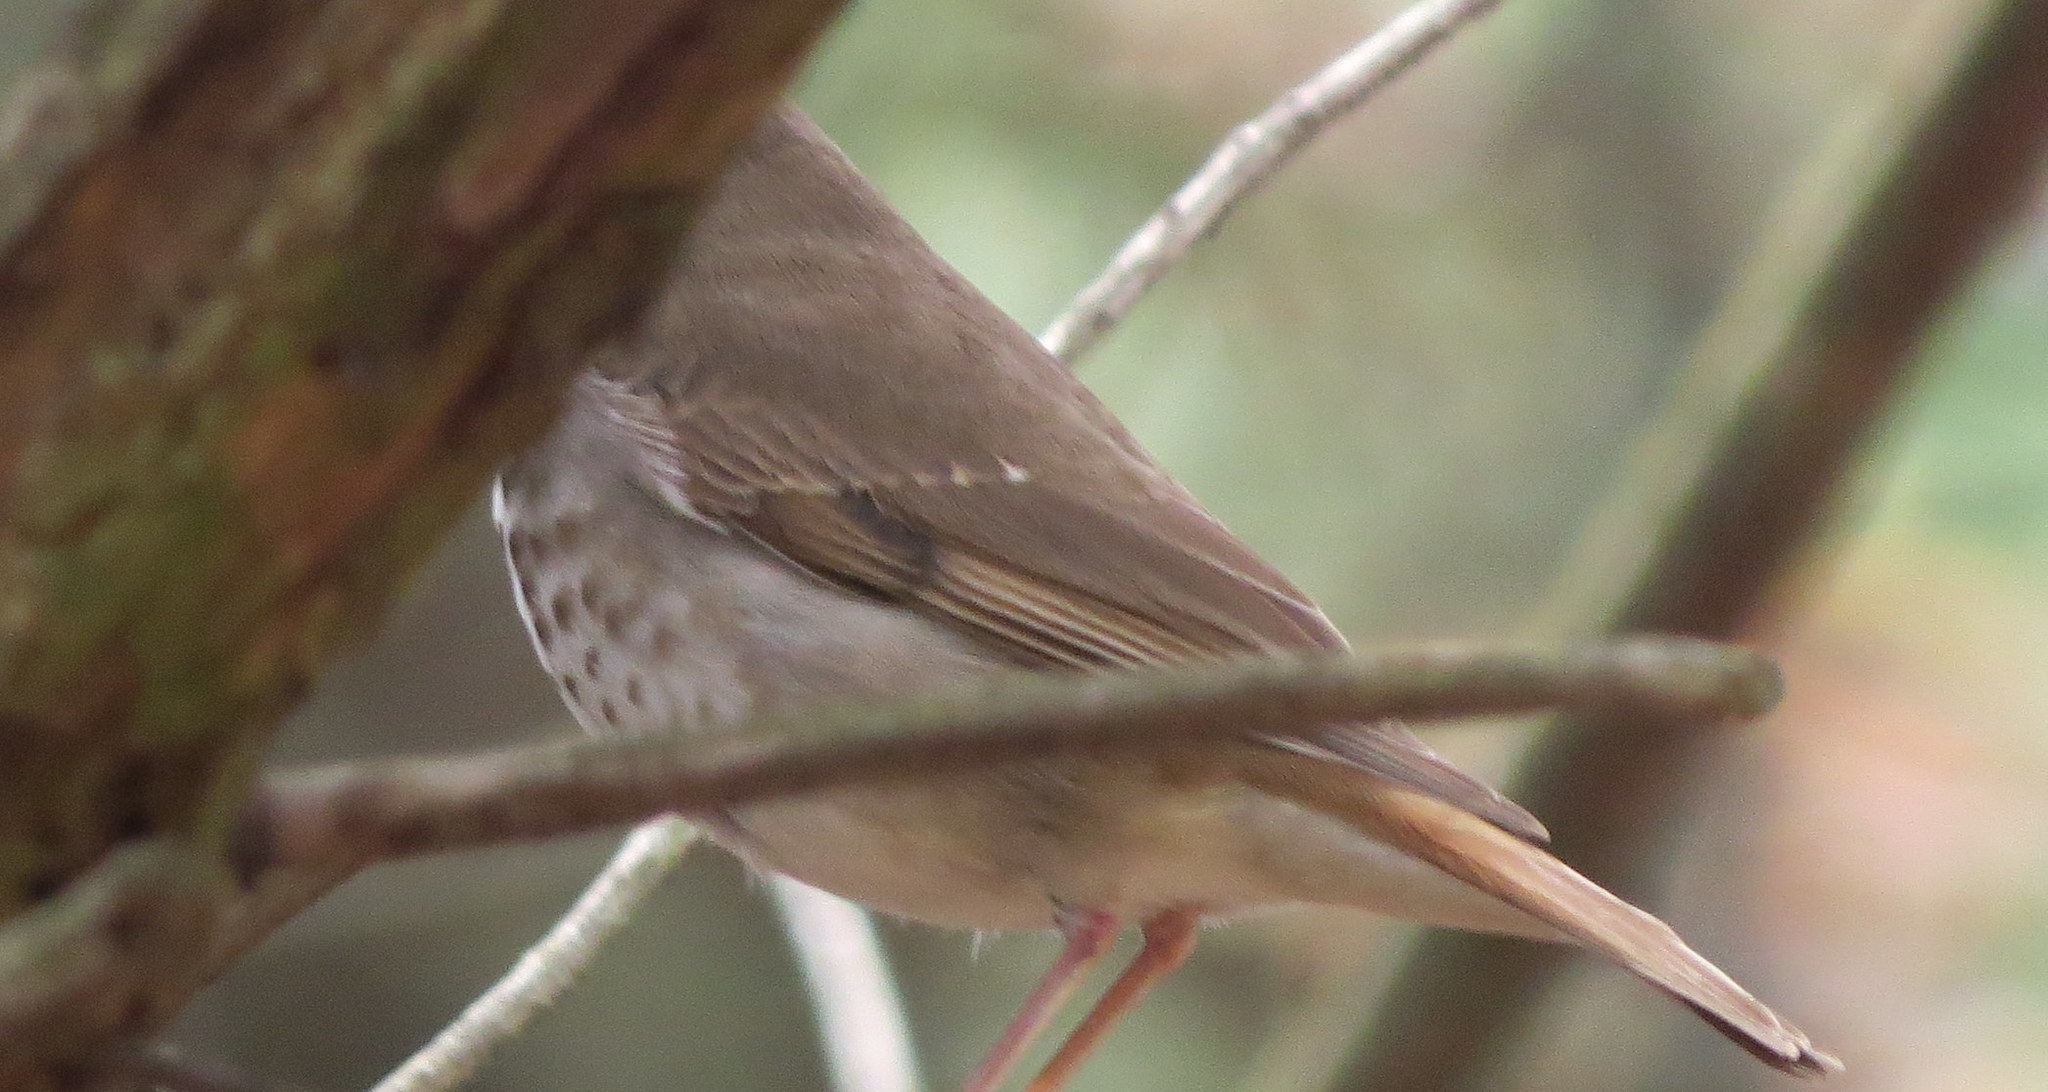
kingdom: Animalia
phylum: Chordata
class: Aves
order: Passeriformes
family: Turdidae
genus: Catharus
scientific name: Catharus guttatus
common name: Hermit thrush
